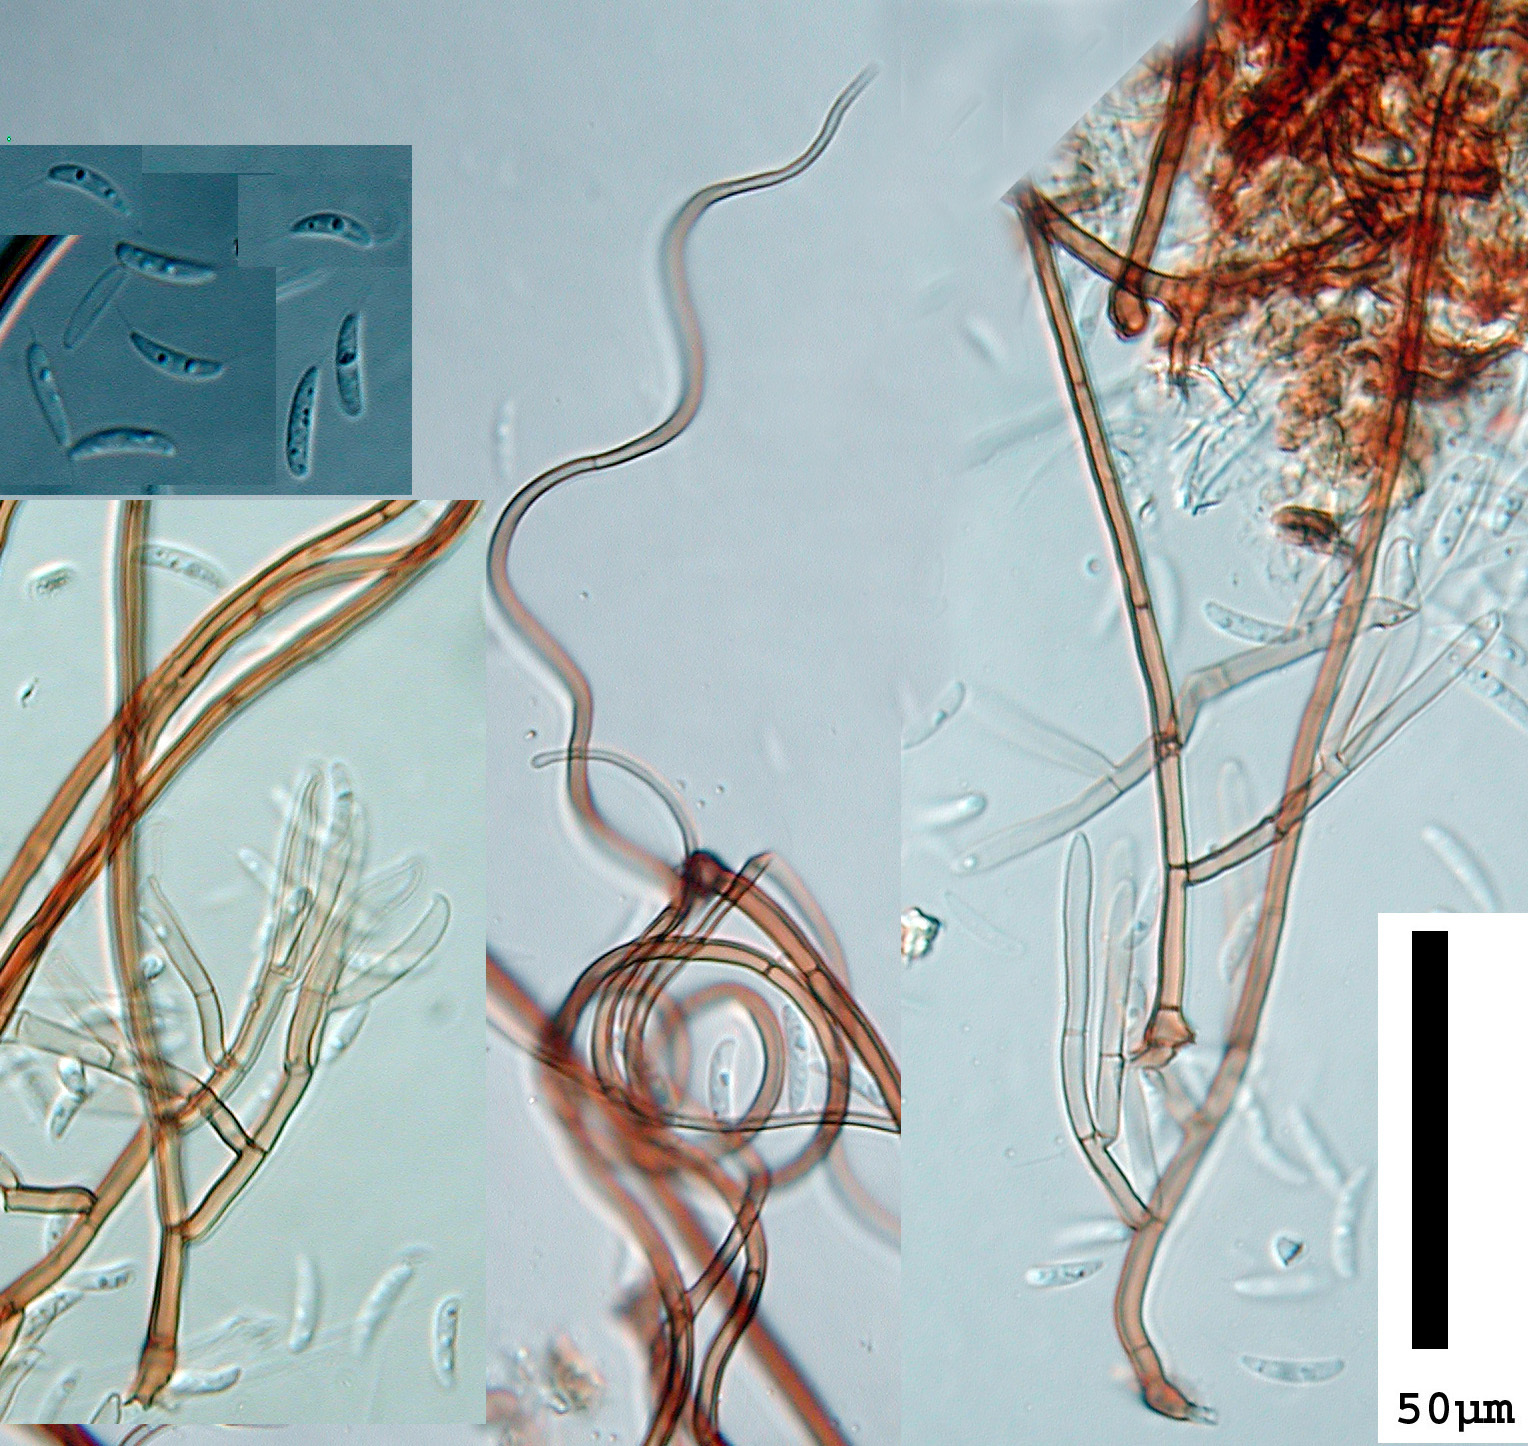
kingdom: Fungi
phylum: Ascomycota
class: Sordariomycetes
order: Chaetosphaeriales
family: Chaetosphaeriaceae
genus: Menispora
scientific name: Menispora uncinata
